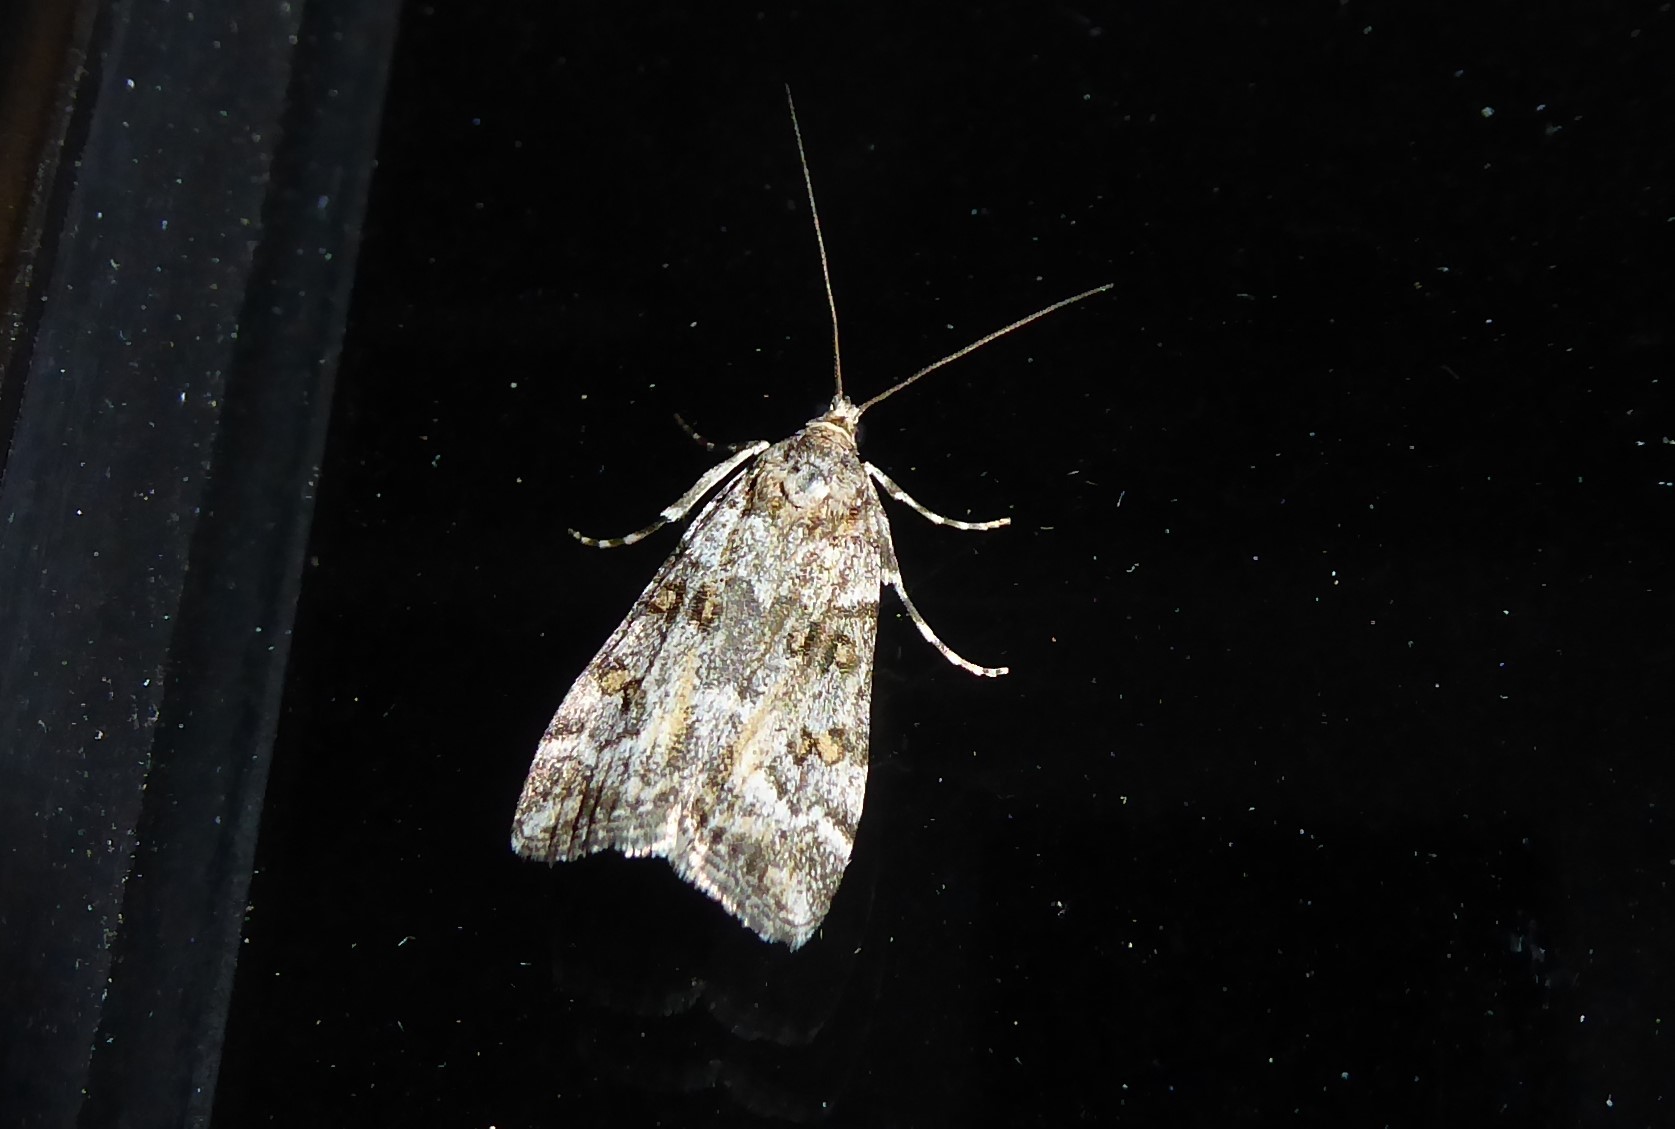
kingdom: Animalia
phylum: Arthropoda
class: Insecta
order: Lepidoptera
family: Crambidae
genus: Eudonia
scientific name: Eudonia diphtheralis
